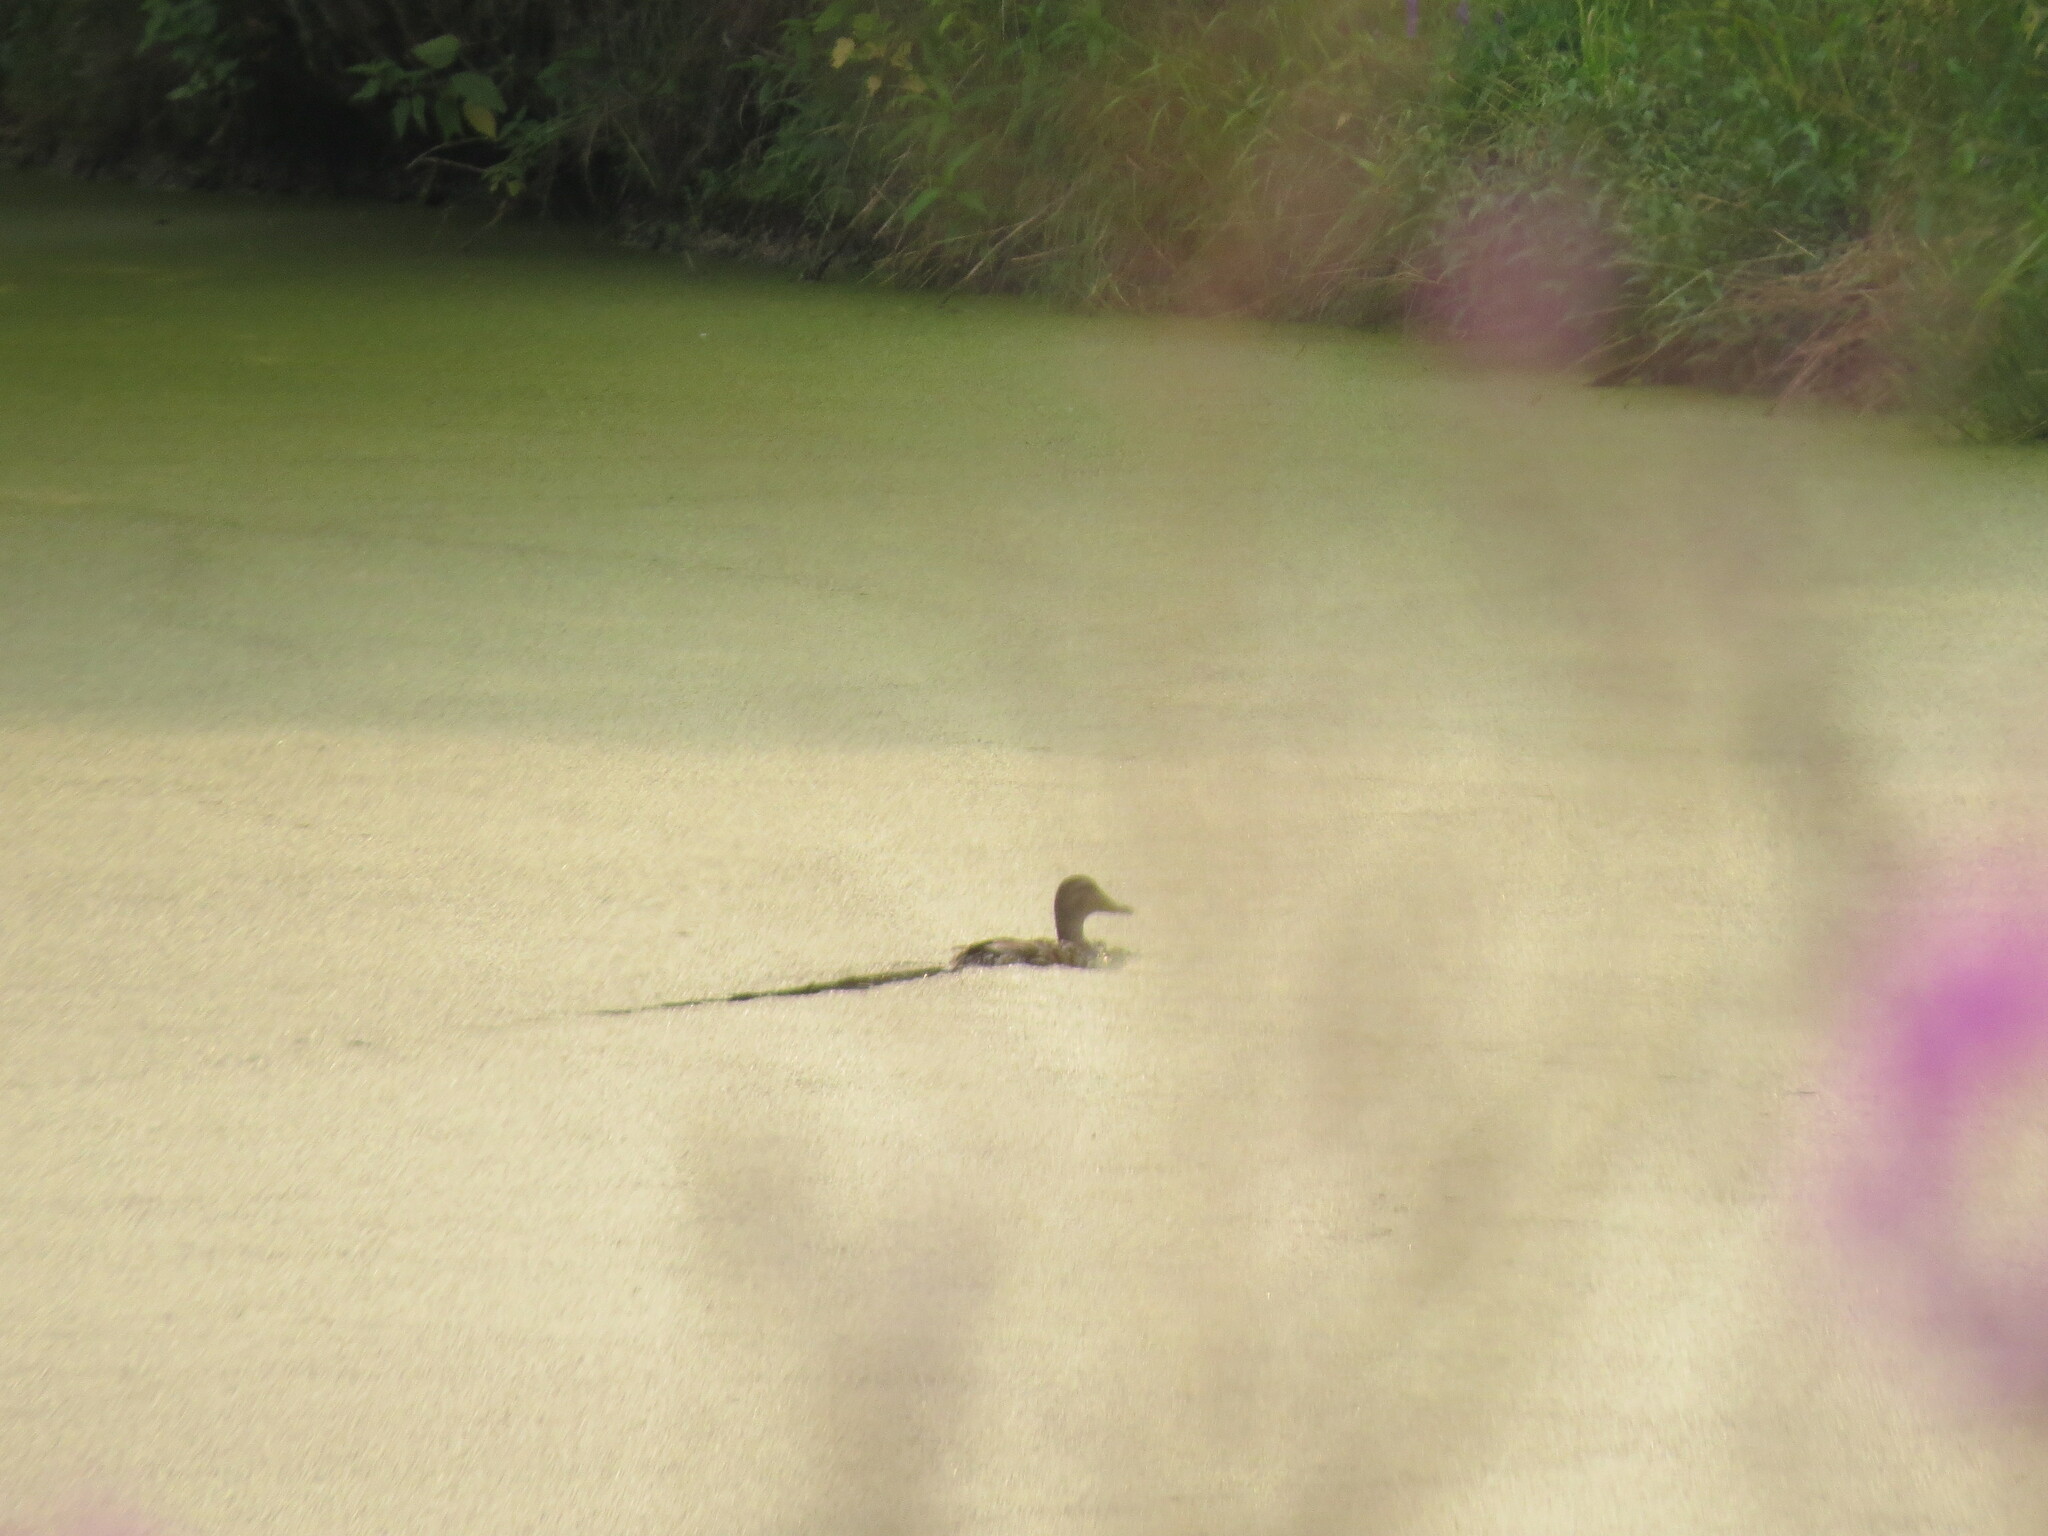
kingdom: Animalia
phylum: Chordata
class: Aves
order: Anseriformes
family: Anatidae
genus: Anas
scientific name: Anas platyrhynchos
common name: Mallard
